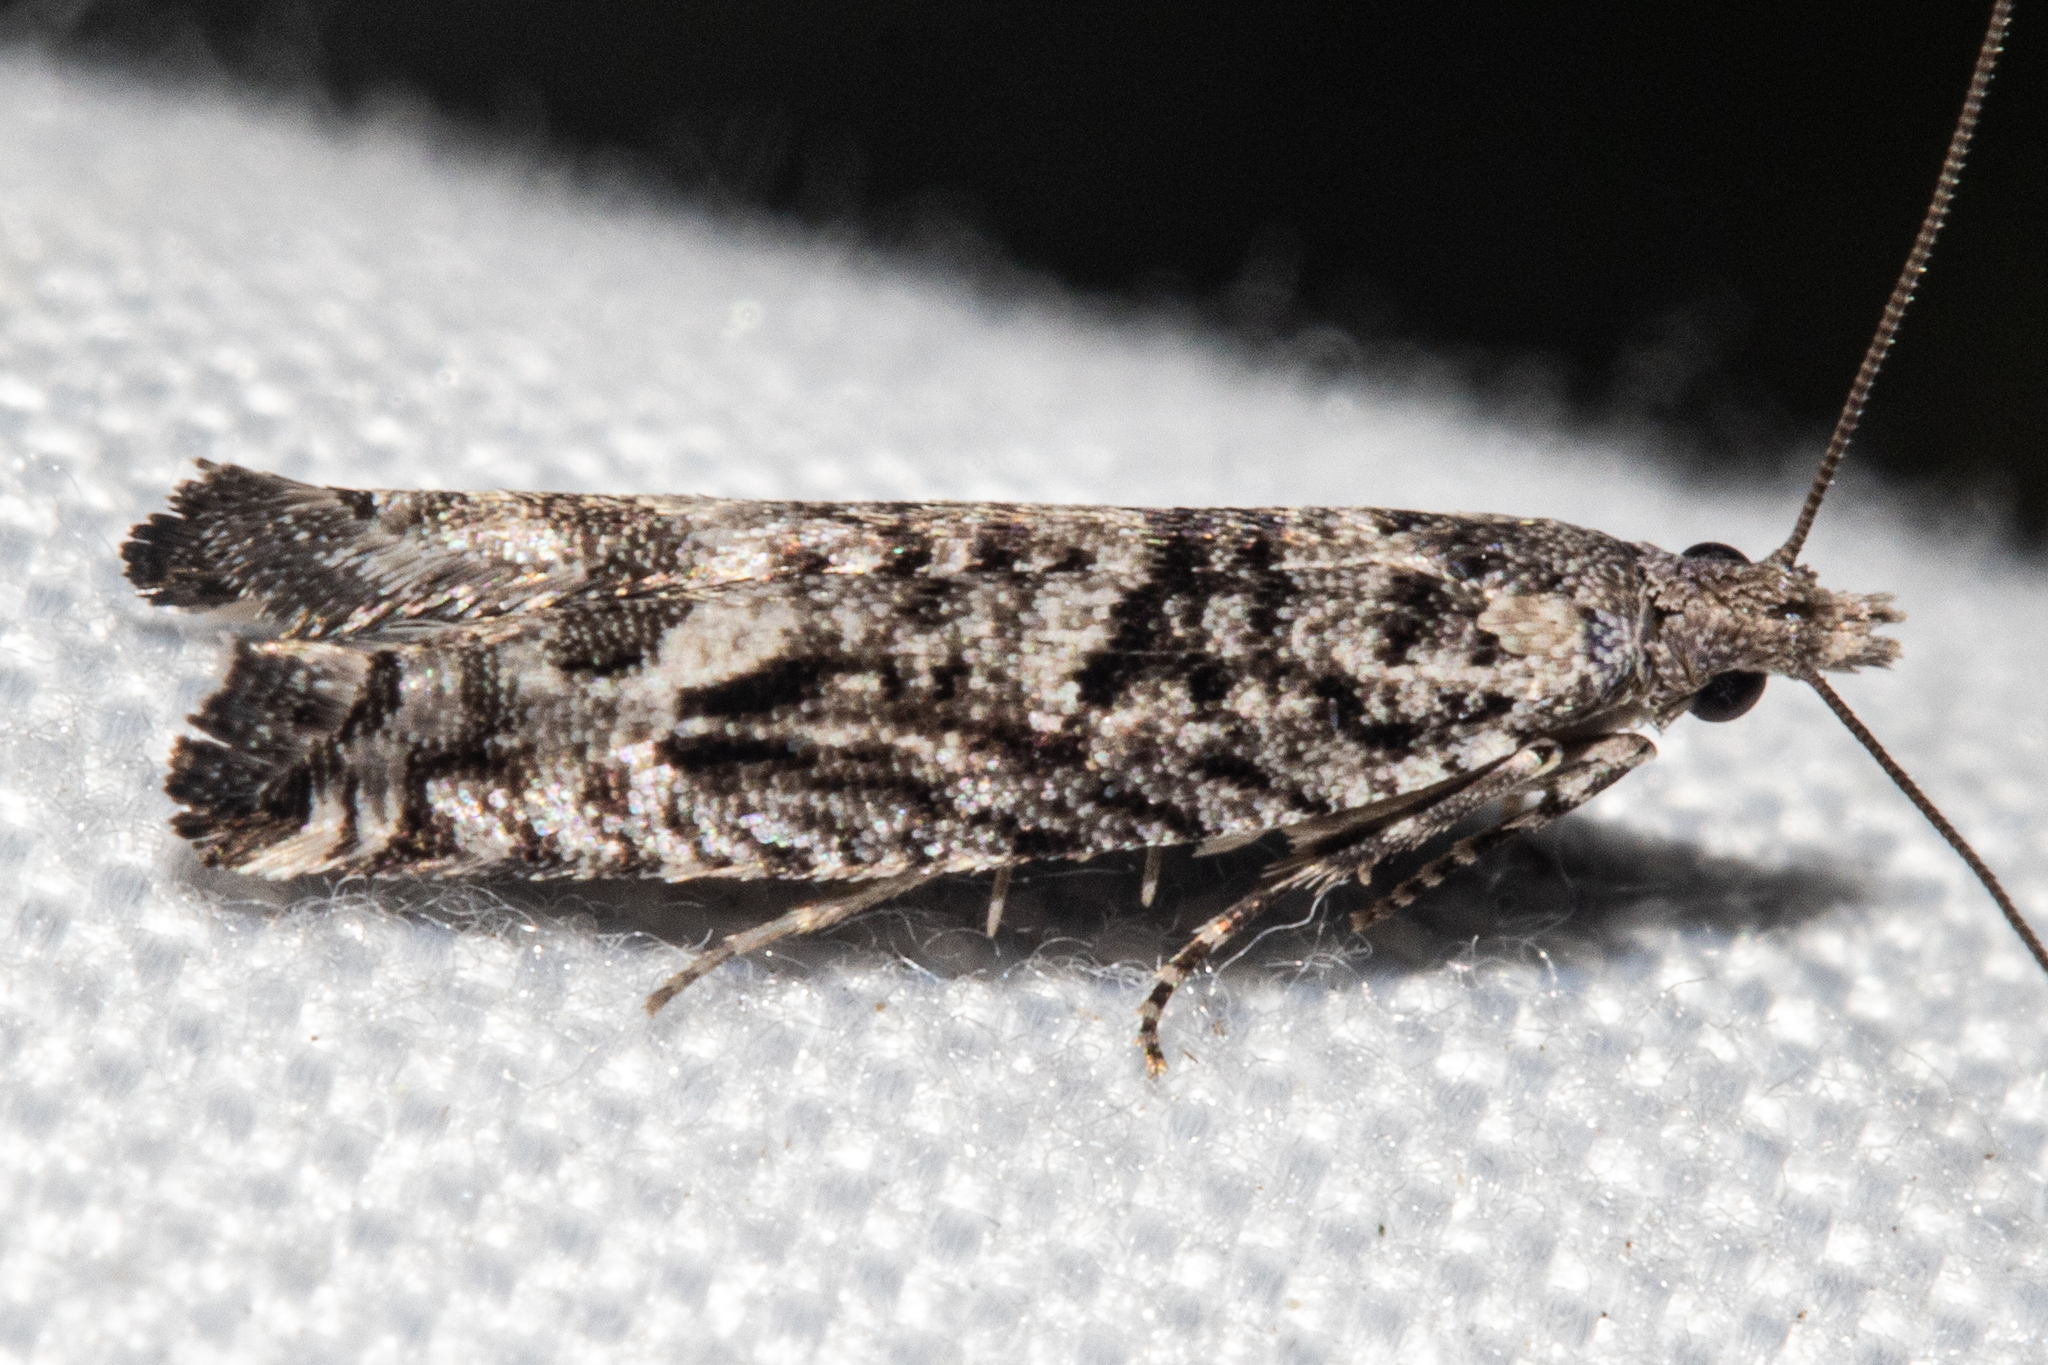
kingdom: Animalia
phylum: Arthropoda
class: Insecta
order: Lepidoptera
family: Tortricidae
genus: Holocola
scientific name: Holocola zopherana
